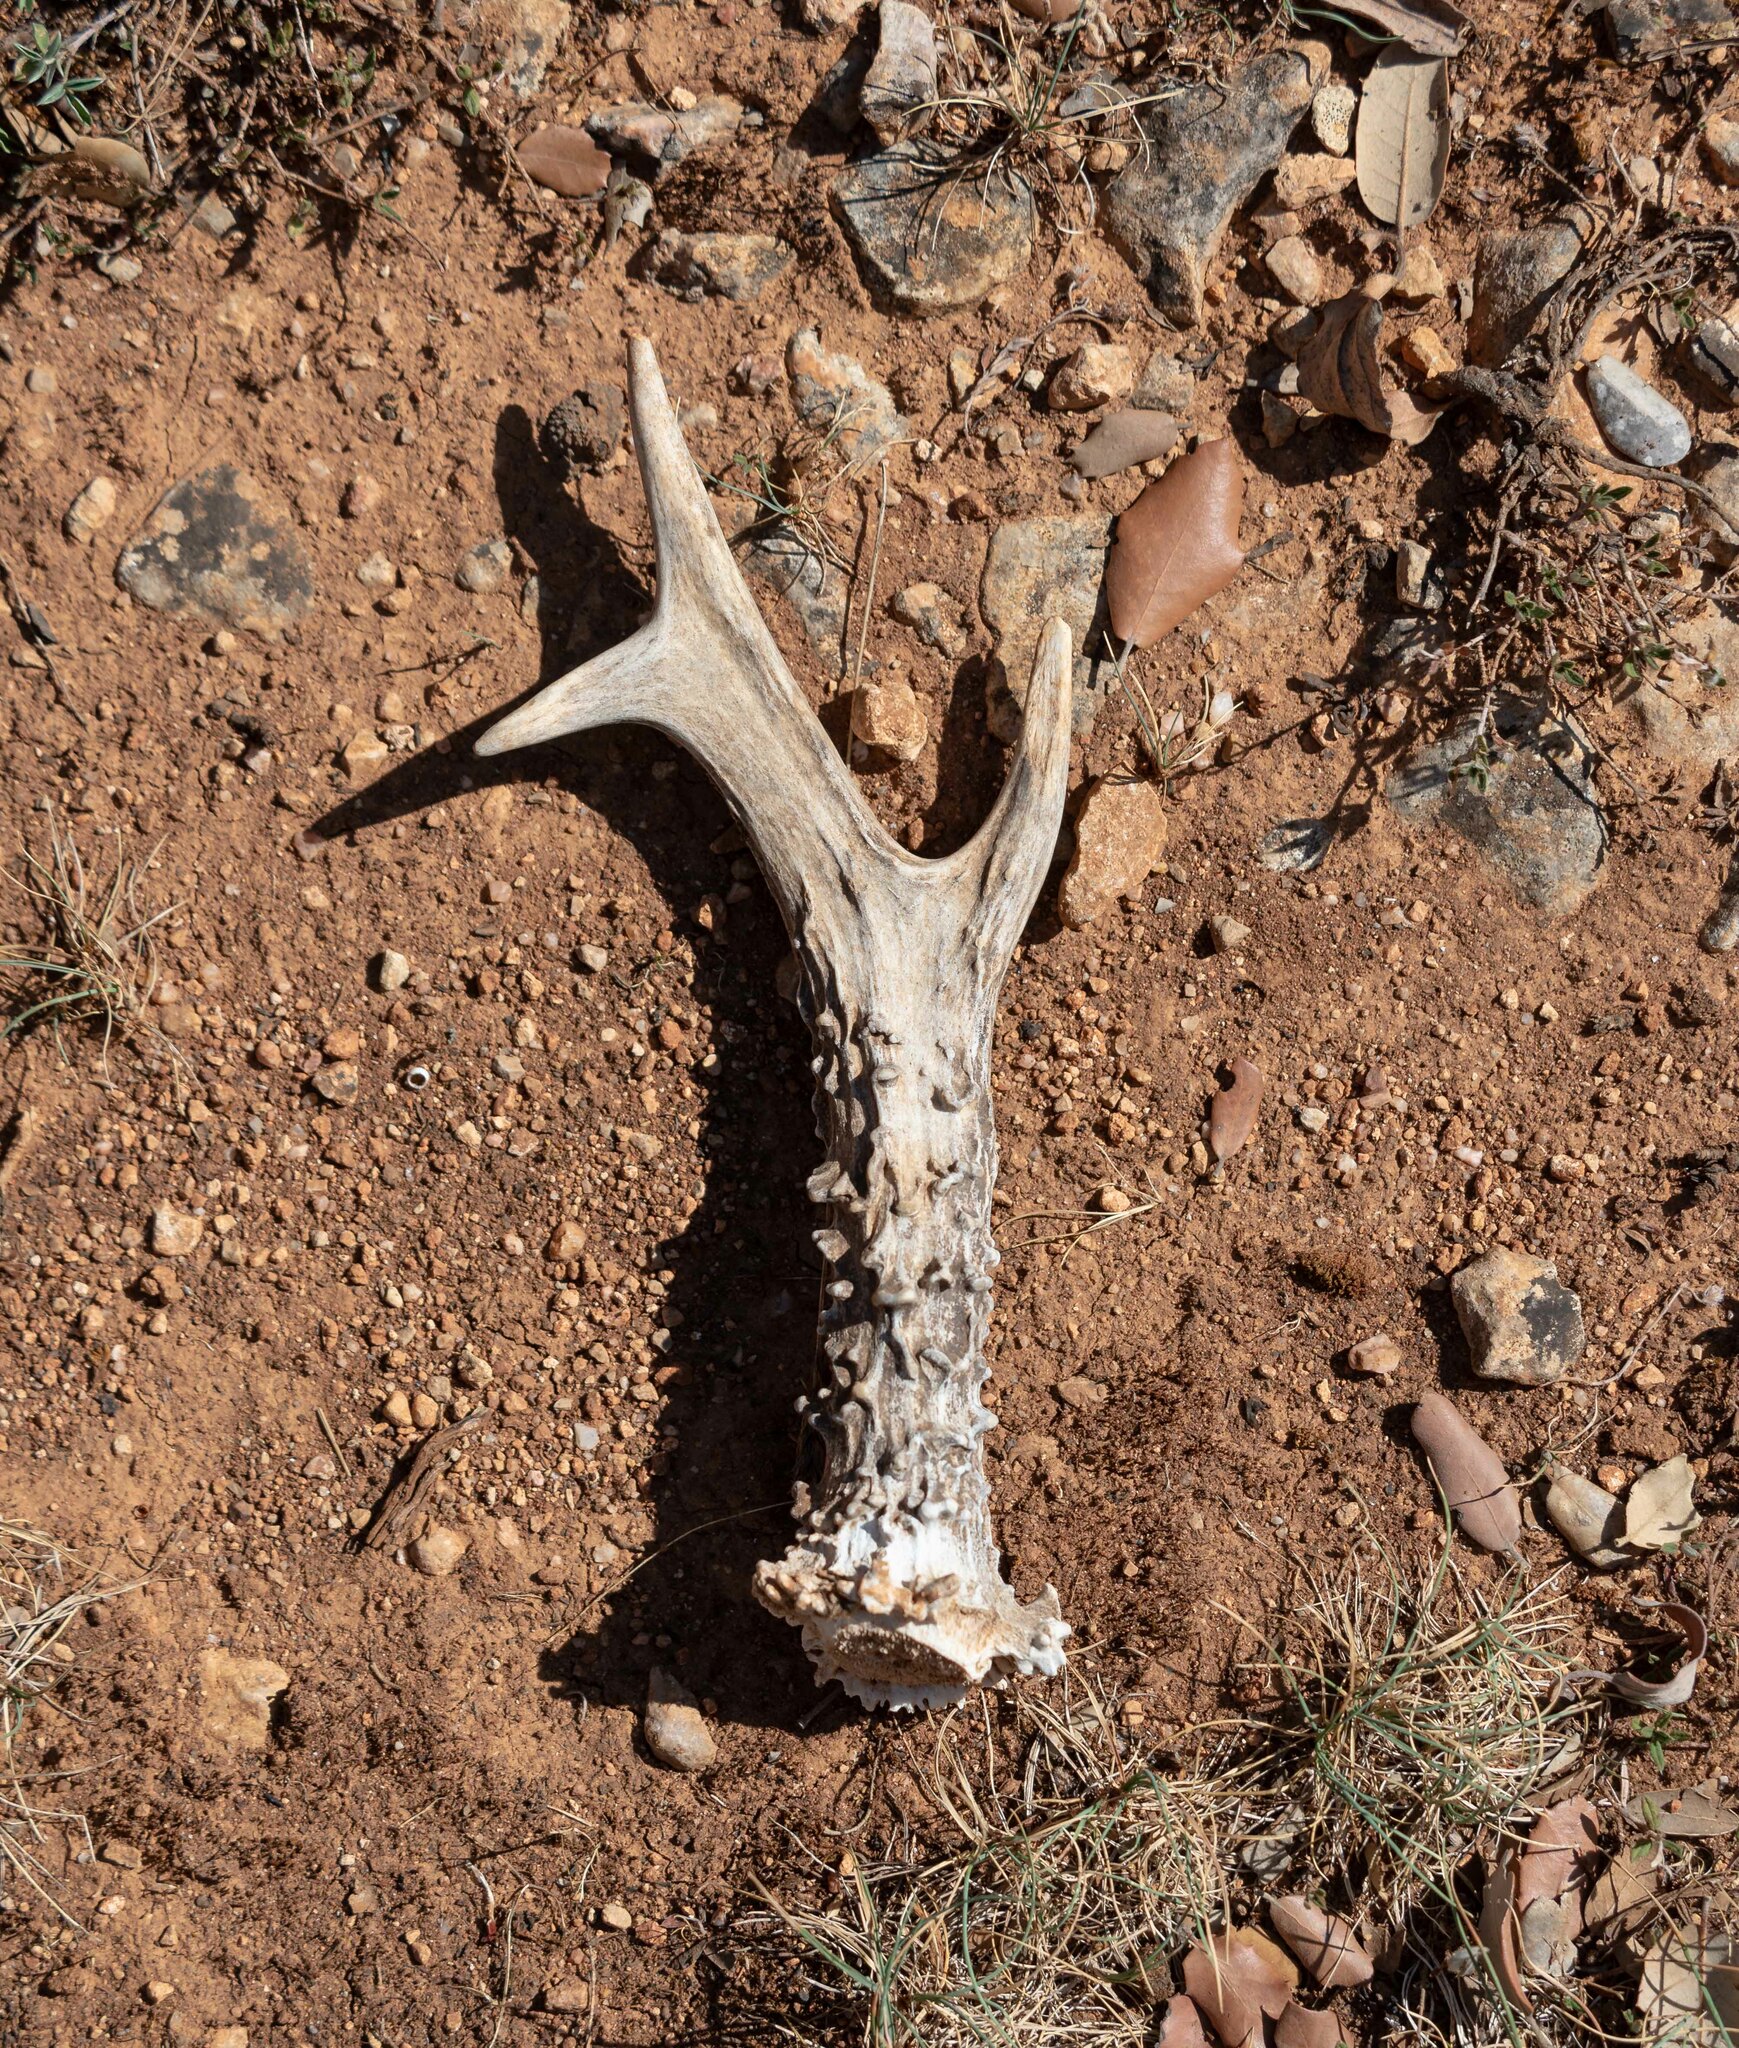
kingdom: Animalia
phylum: Chordata
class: Mammalia
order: Artiodactyla
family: Cervidae
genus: Capreolus
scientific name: Capreolus capreolus
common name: Western roe deer
